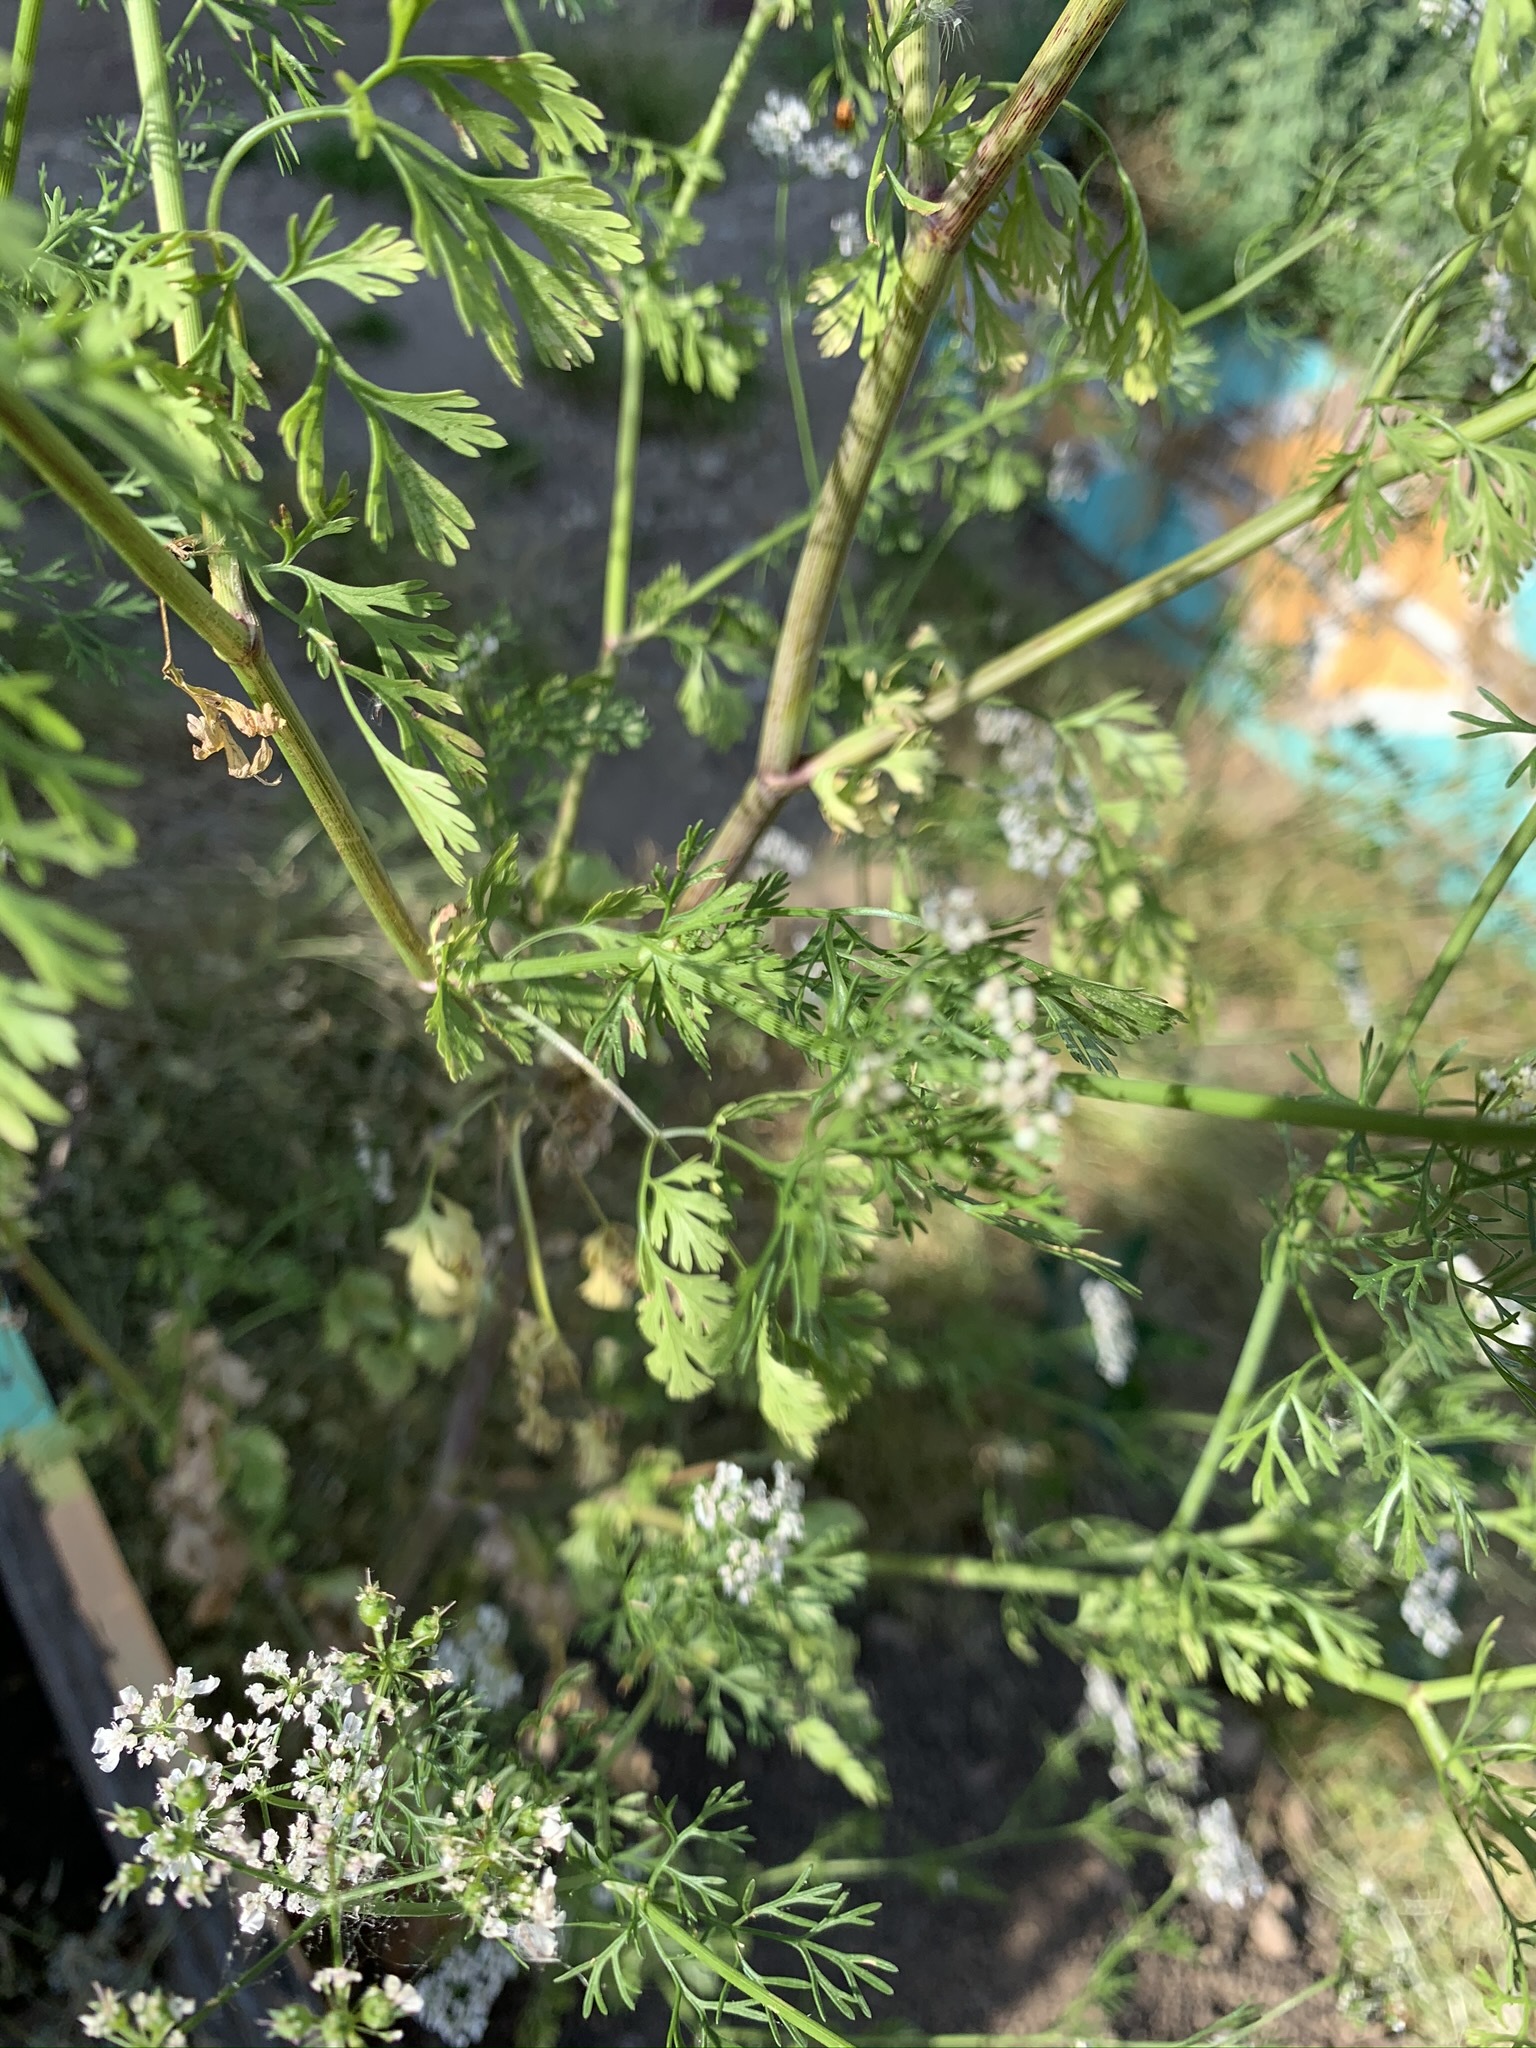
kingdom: Plantae
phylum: Tracheophyta
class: Magnoliopsida
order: Apiales
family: Apiaceae
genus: Coriandrum
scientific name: Coriandrum sativum
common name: Coriander
